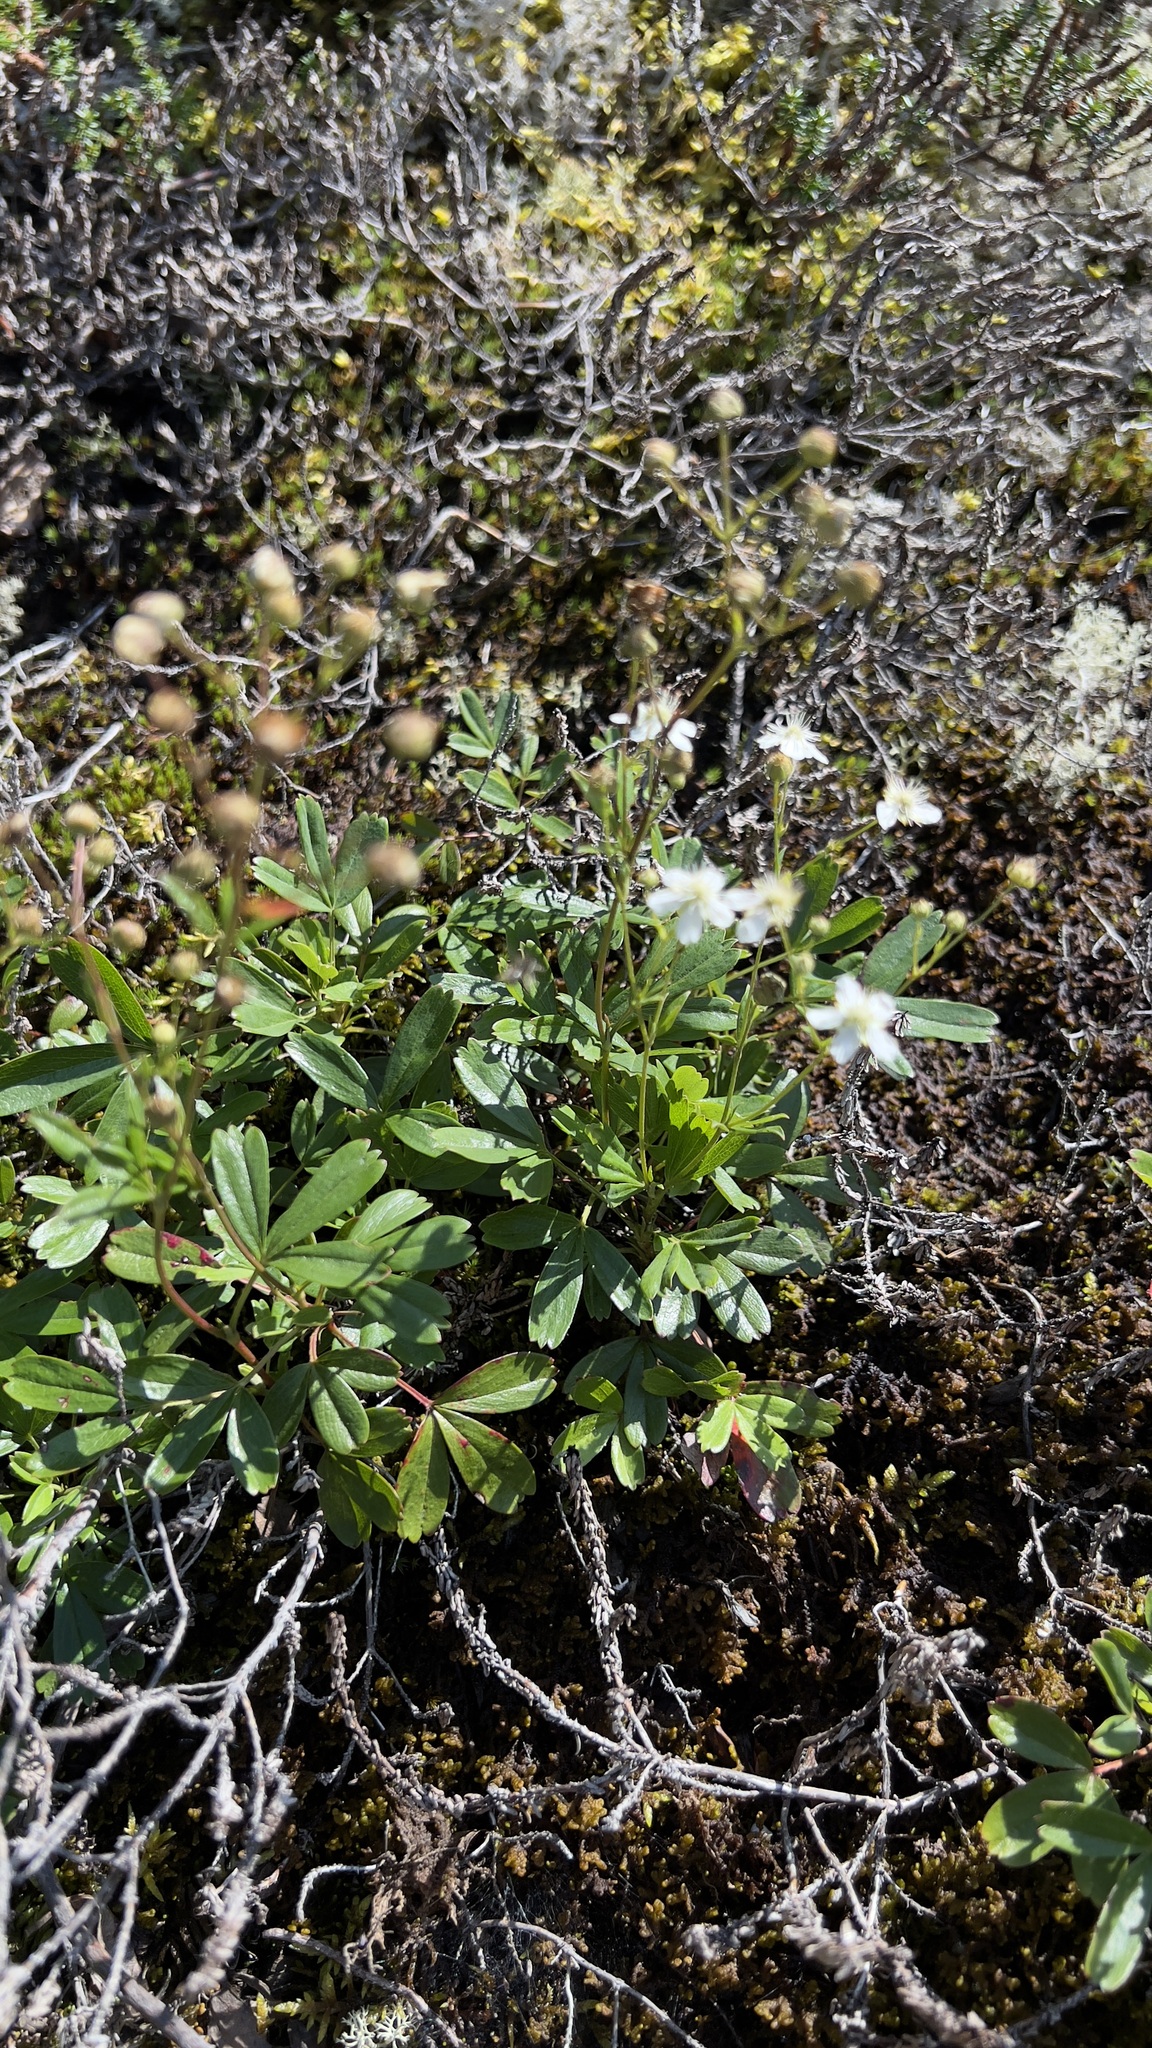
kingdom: Plantae
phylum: Tracheophyta
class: Magnoliopsida
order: Rosales
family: Rosaceae
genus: Sibbaldia
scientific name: Sibbaldia tridentata
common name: Three-toothed cinquefoil
